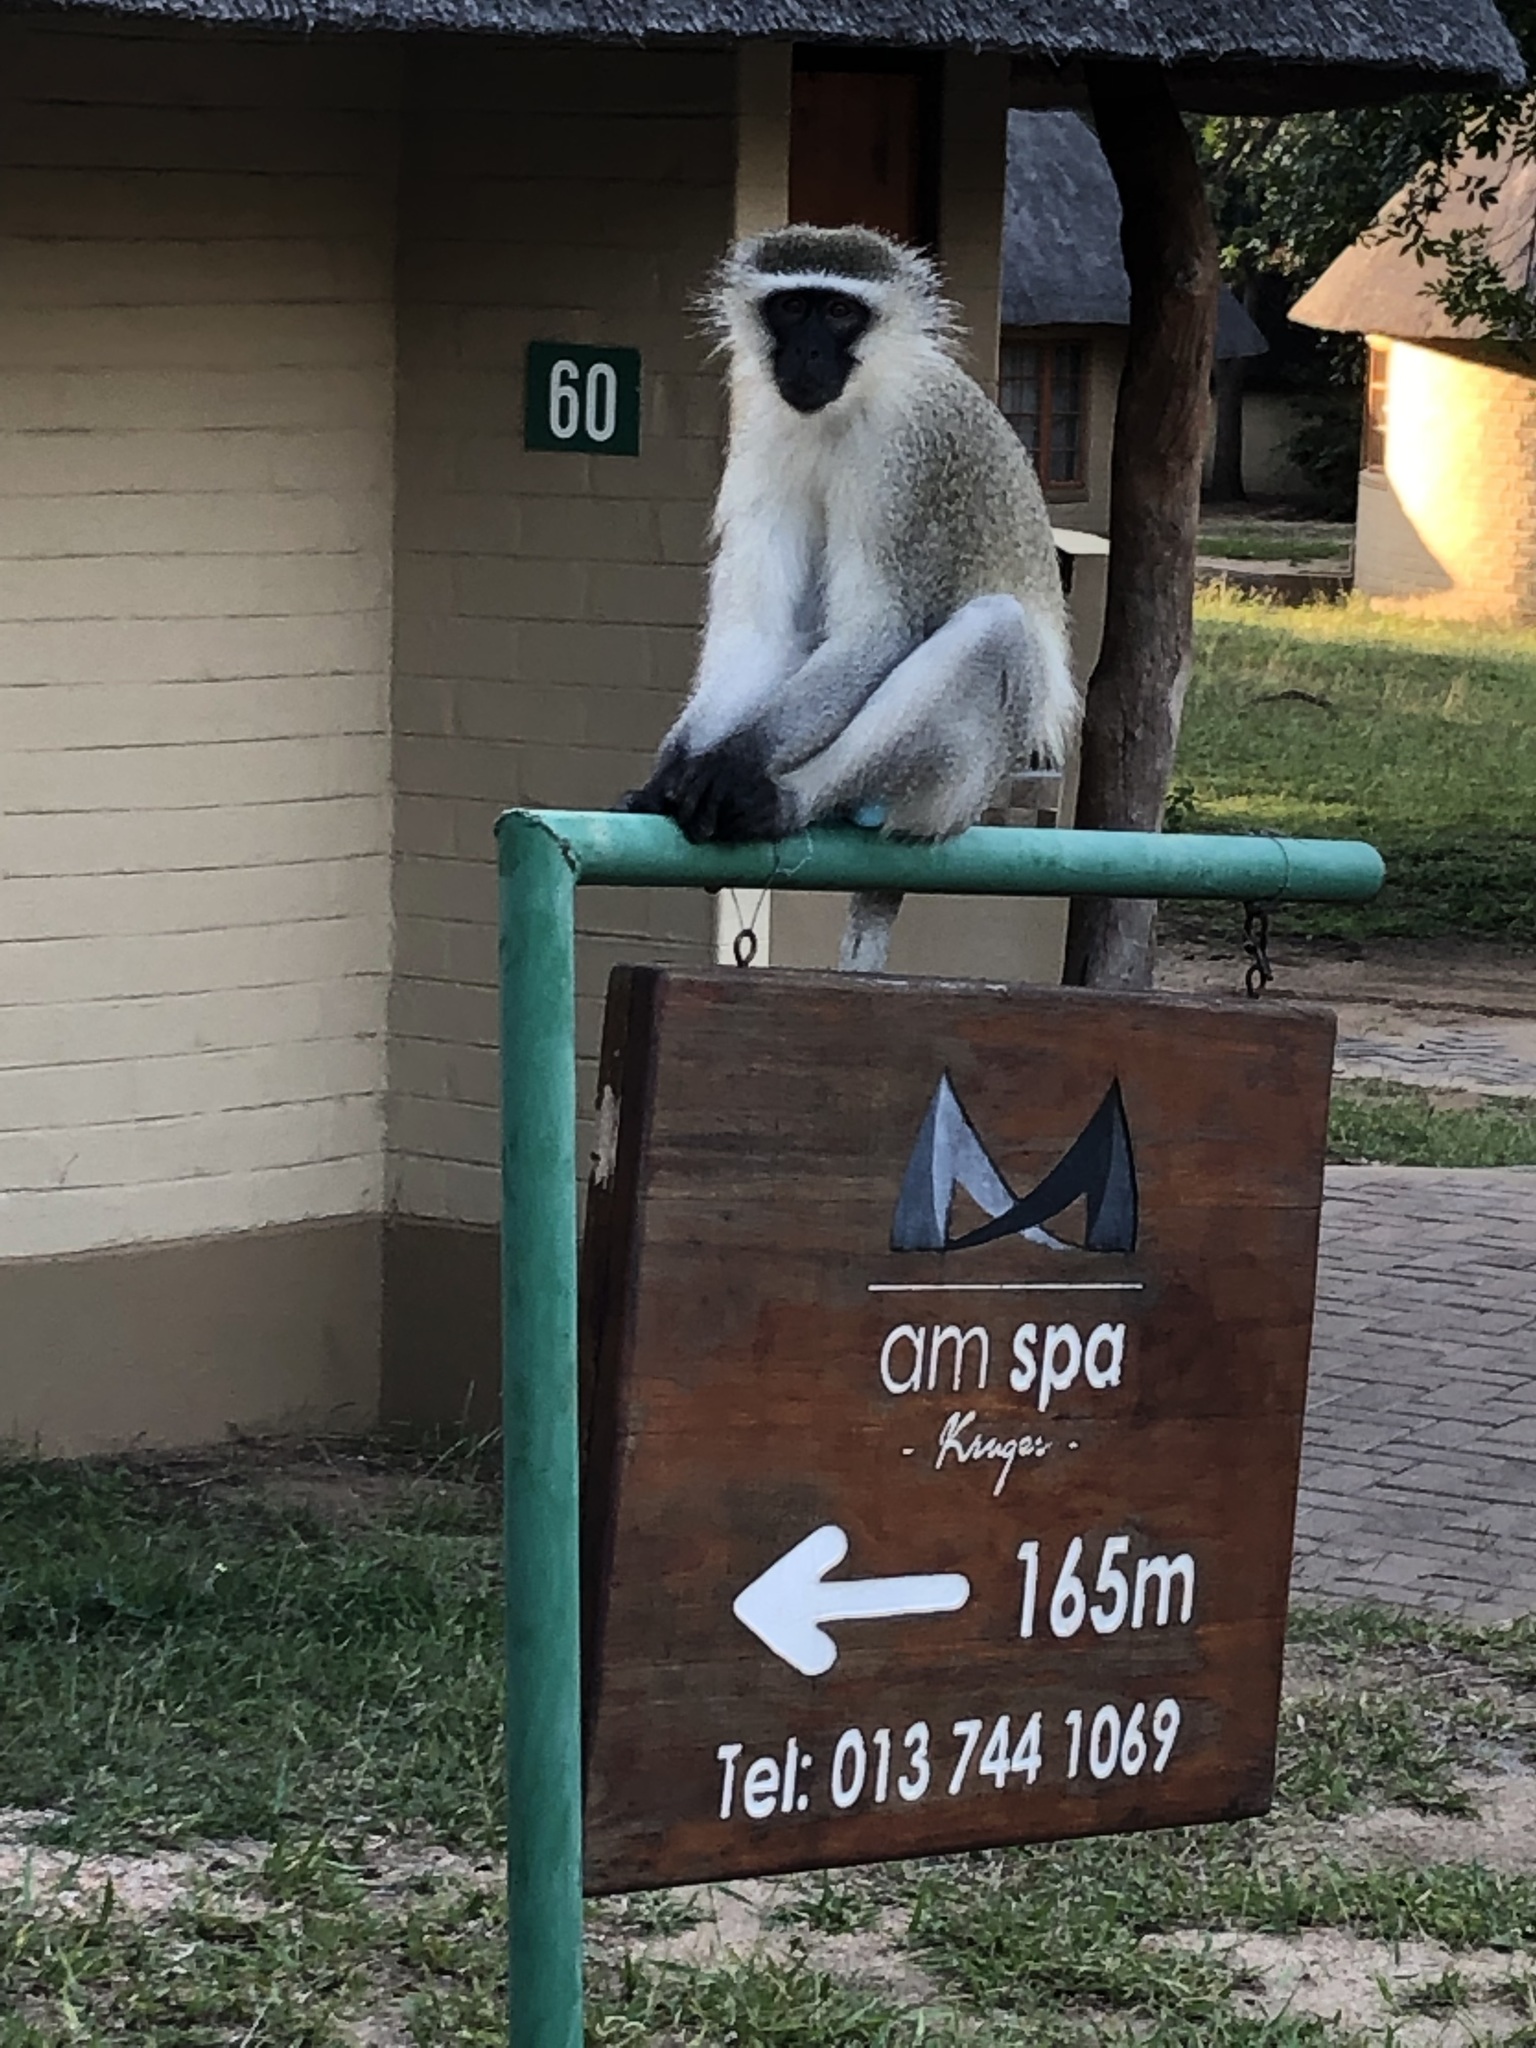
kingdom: Animalia
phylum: Chordata
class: Mammalia
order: Primates
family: Cercopithecidae
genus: Chlorocebus
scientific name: Chlorocebus pygerythrus
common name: Vervet monkey
